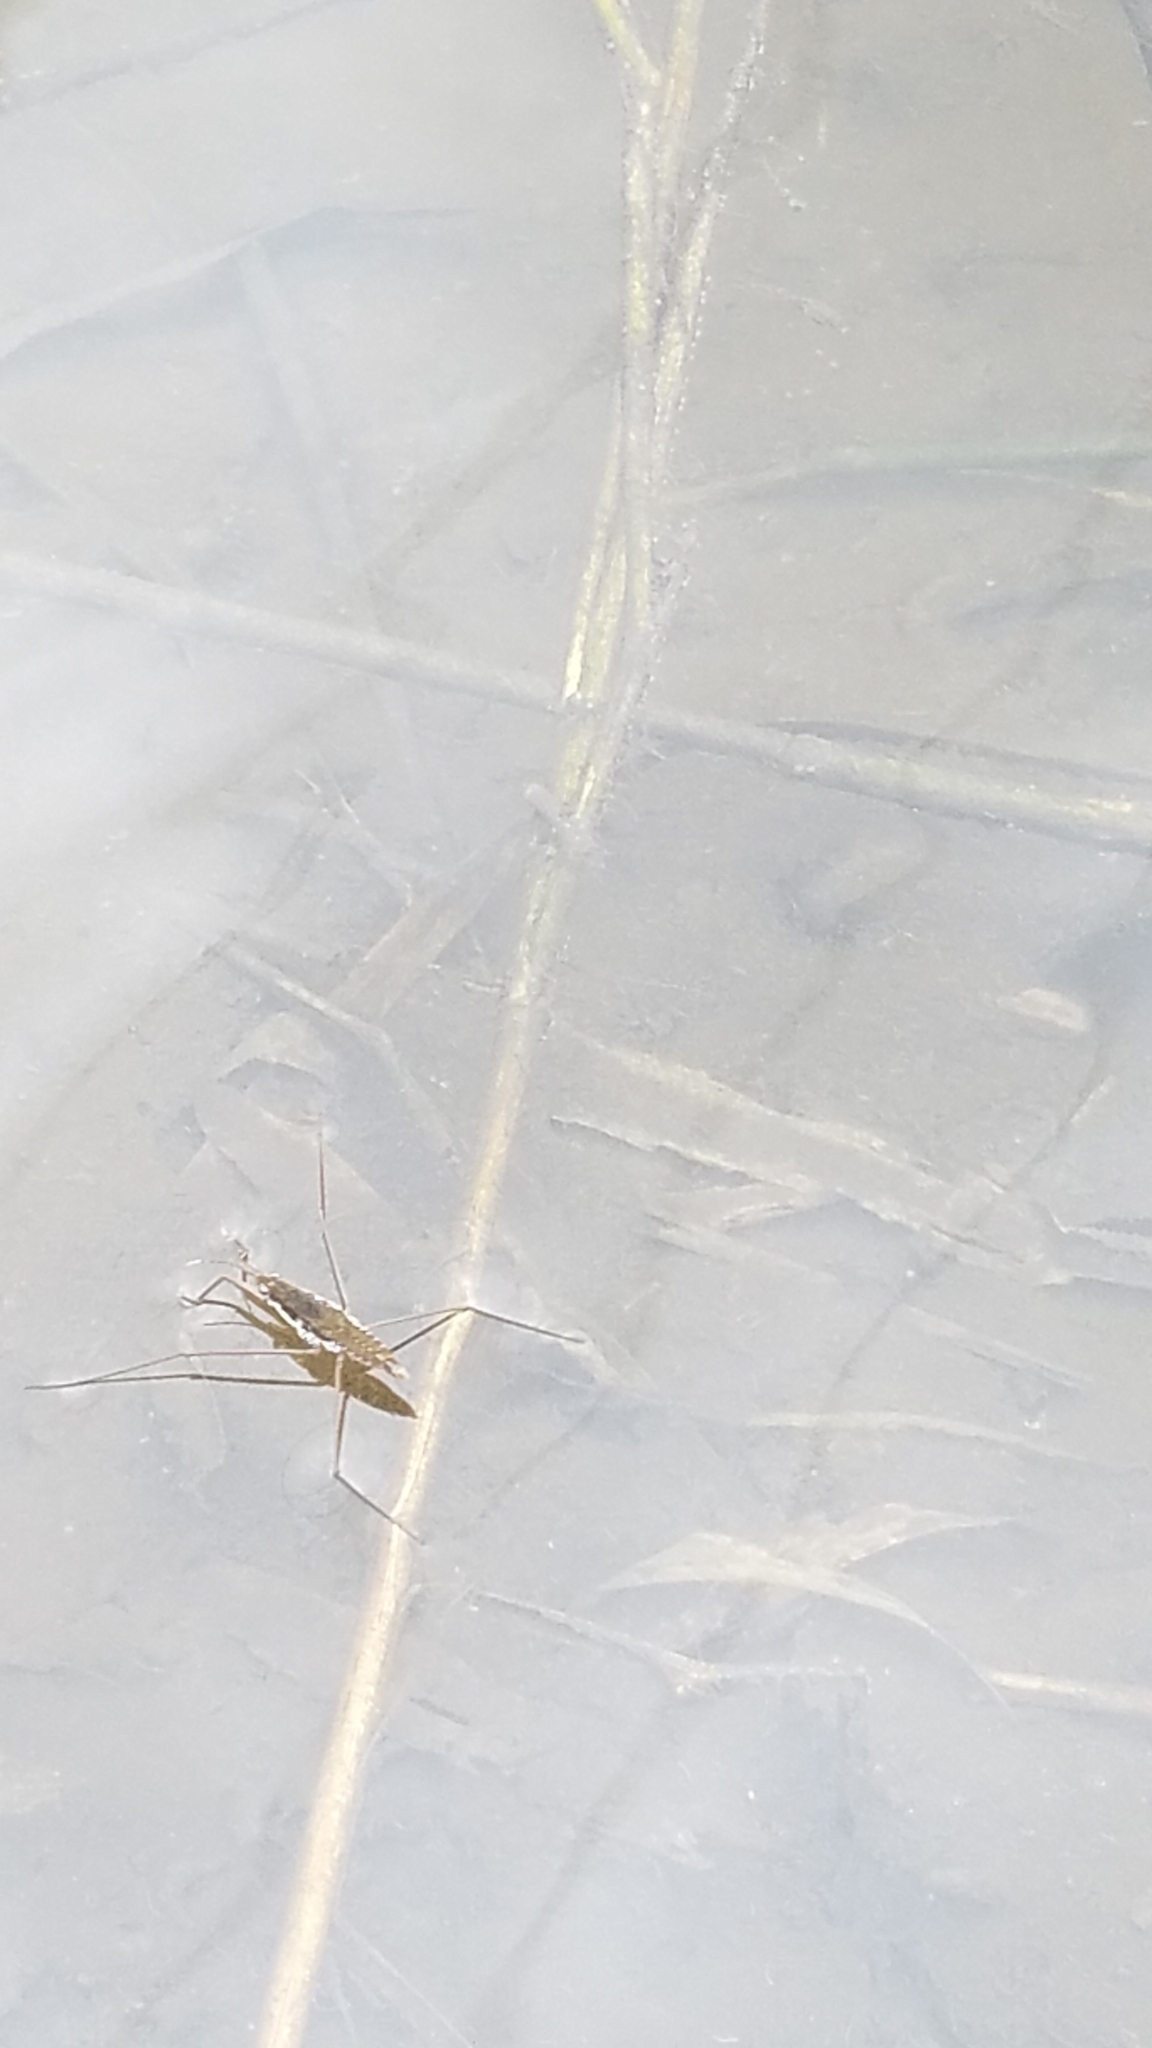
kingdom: Animalia
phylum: Arthropoda
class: Insecta
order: Hemiptera
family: Gerridae
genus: Aquarius
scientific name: Aquarius remigis
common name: Common water strider
